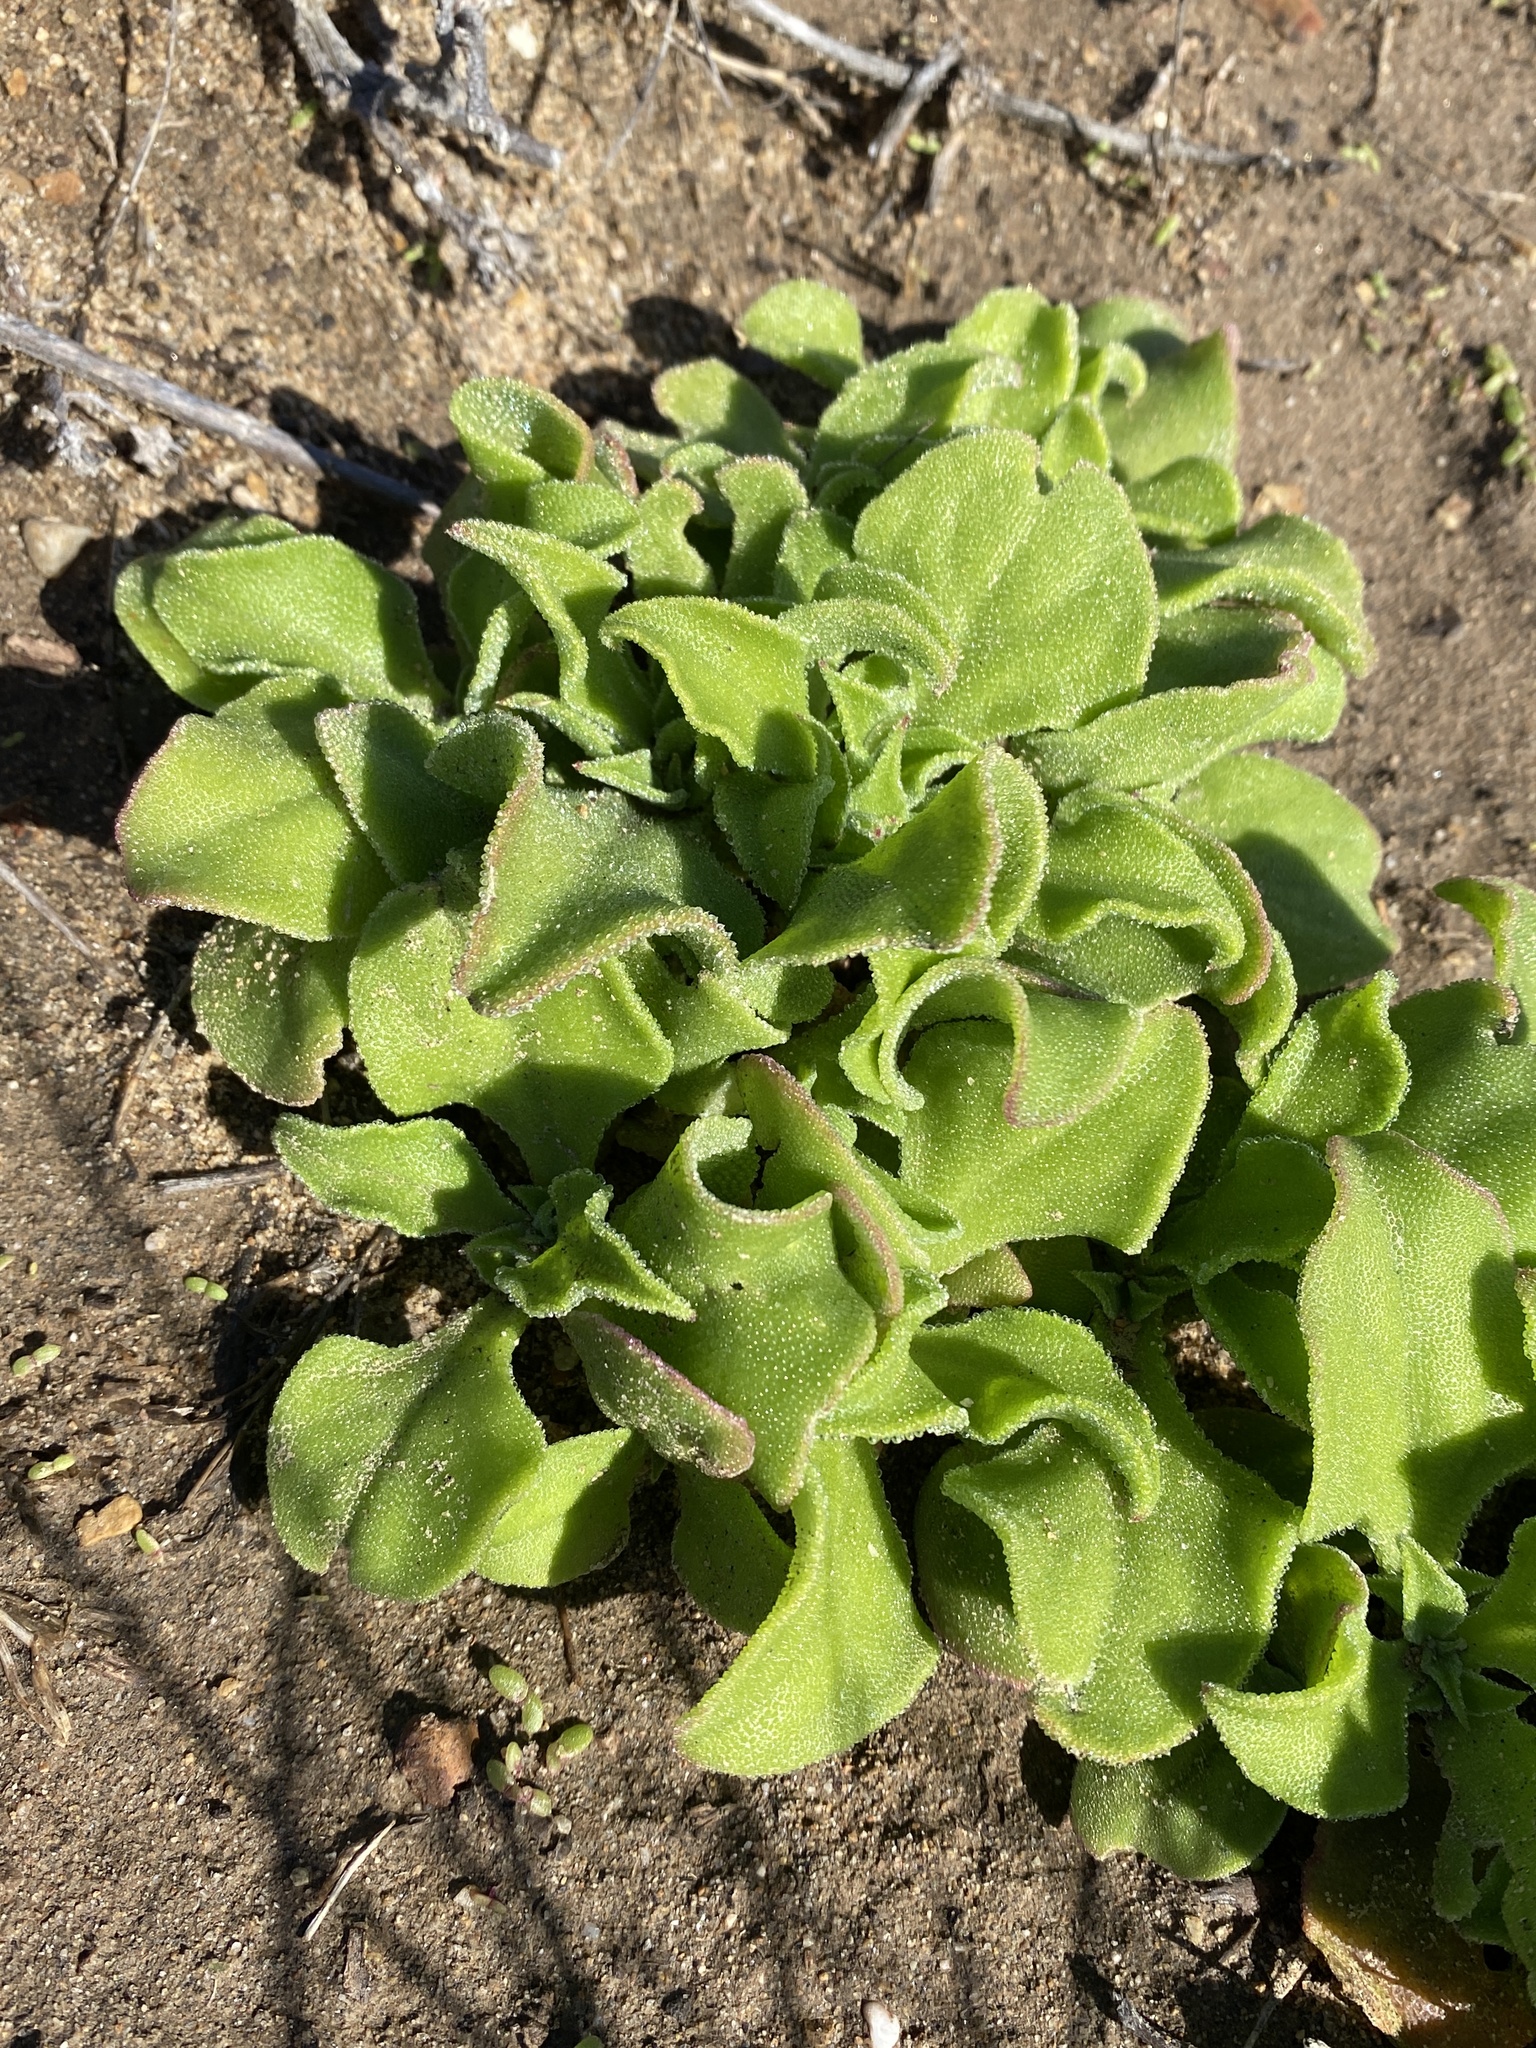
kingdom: Plantae
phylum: Tracheophyta
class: Magnoliopsida
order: Caryophyllales
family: Aizoaceae
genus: Mesembryanthemum
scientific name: Mesembryanthemum crystallinum
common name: Common iceplant
